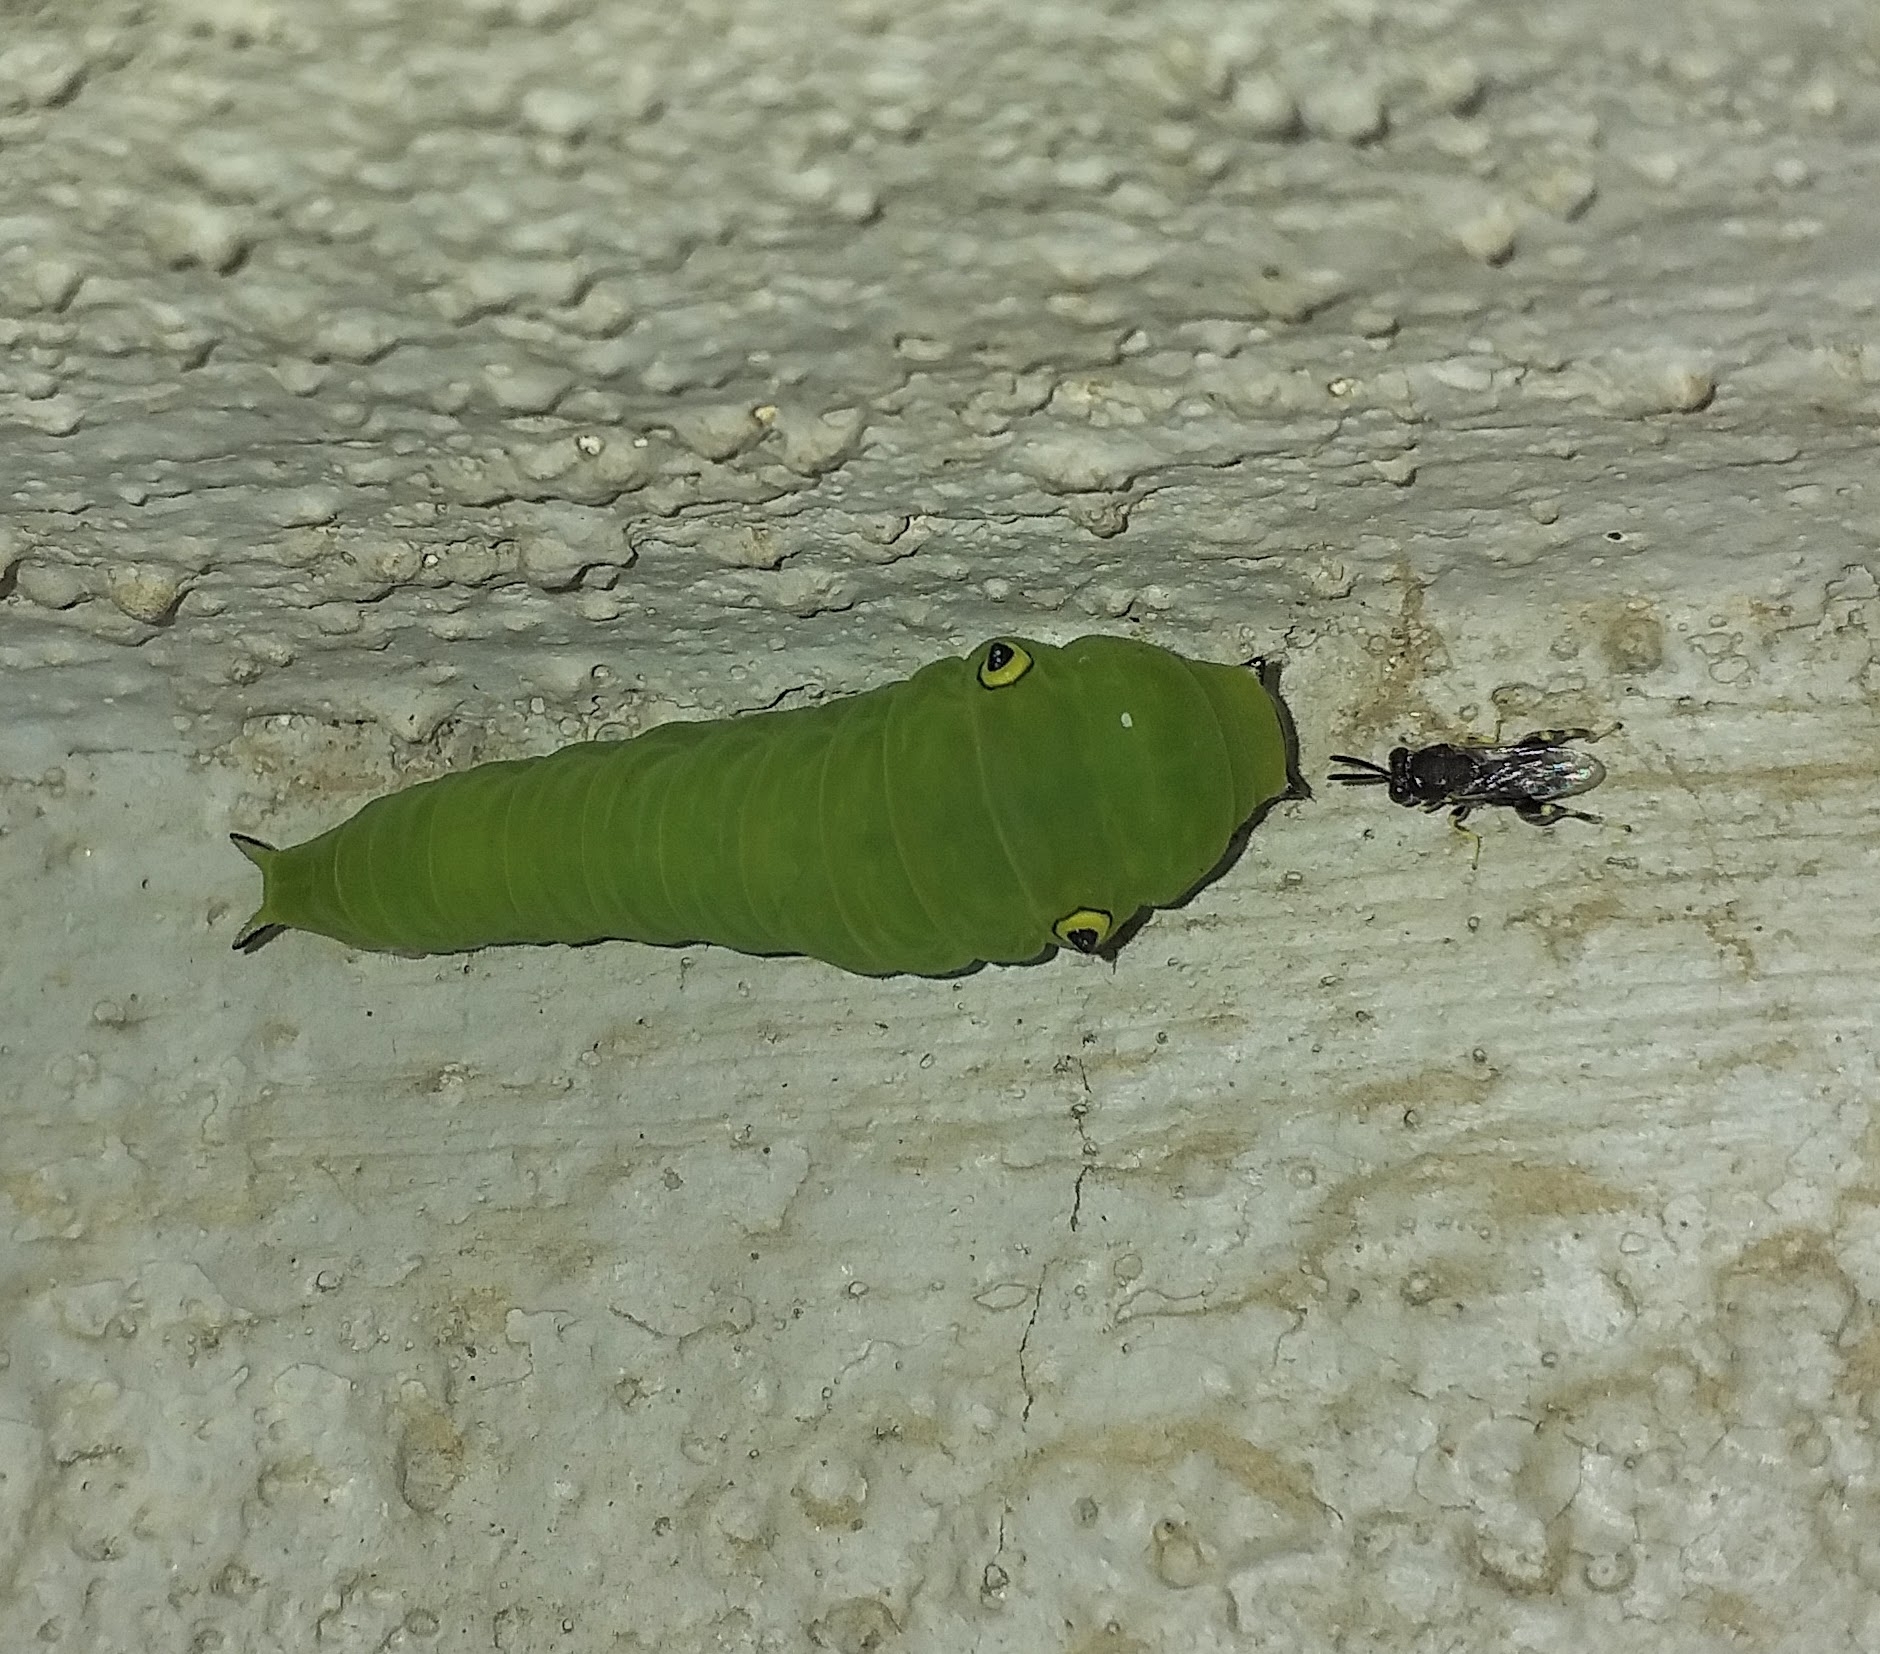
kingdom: Animalia
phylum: Arthropoda
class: Insecta
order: Lepidoptera
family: Papilionidae
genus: Graphium
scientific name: Graphium doson
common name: Common jay
